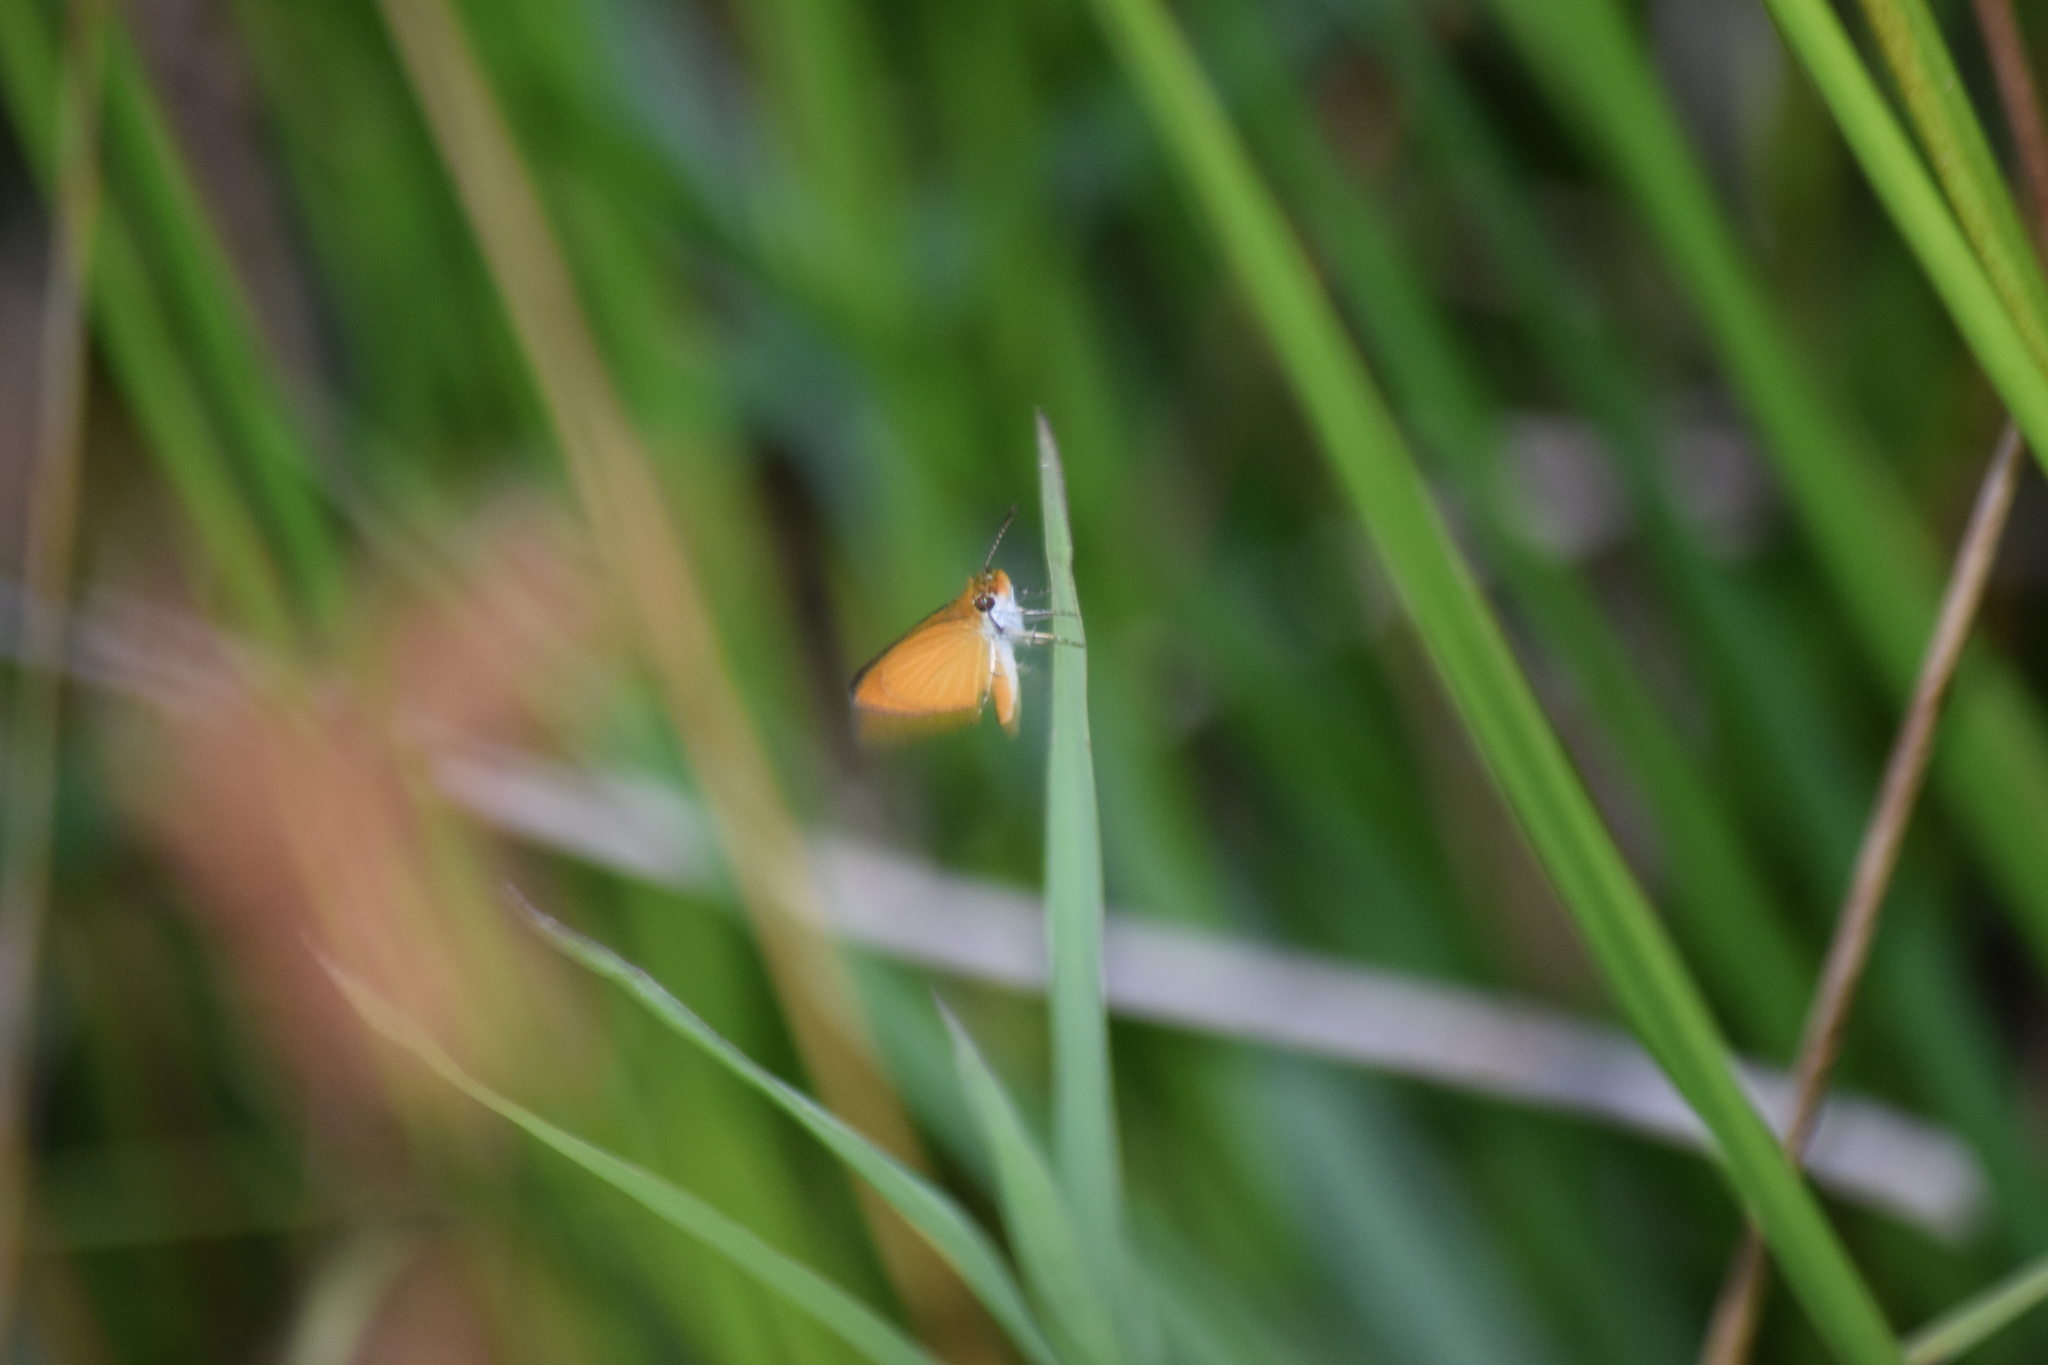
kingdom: Animalia
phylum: Arthropoda
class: Insecta
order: Lepidoptera
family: Hesperiidae
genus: Ancyloxypha
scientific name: Ancyloxypha numitor
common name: Least skipper
